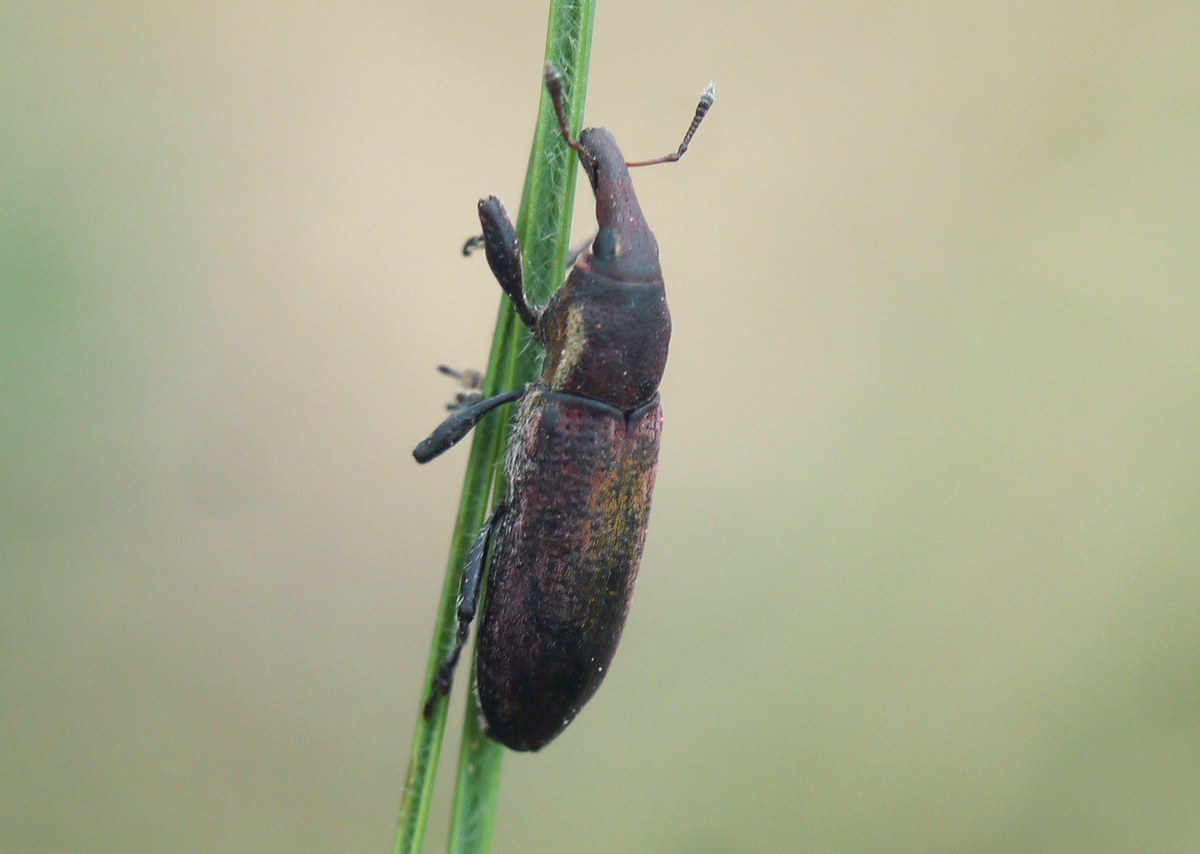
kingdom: Animalia
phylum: Arthropoda
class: Insecta
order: Coleoptera
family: Curculionidae
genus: Lixus
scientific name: Lixus vilis
